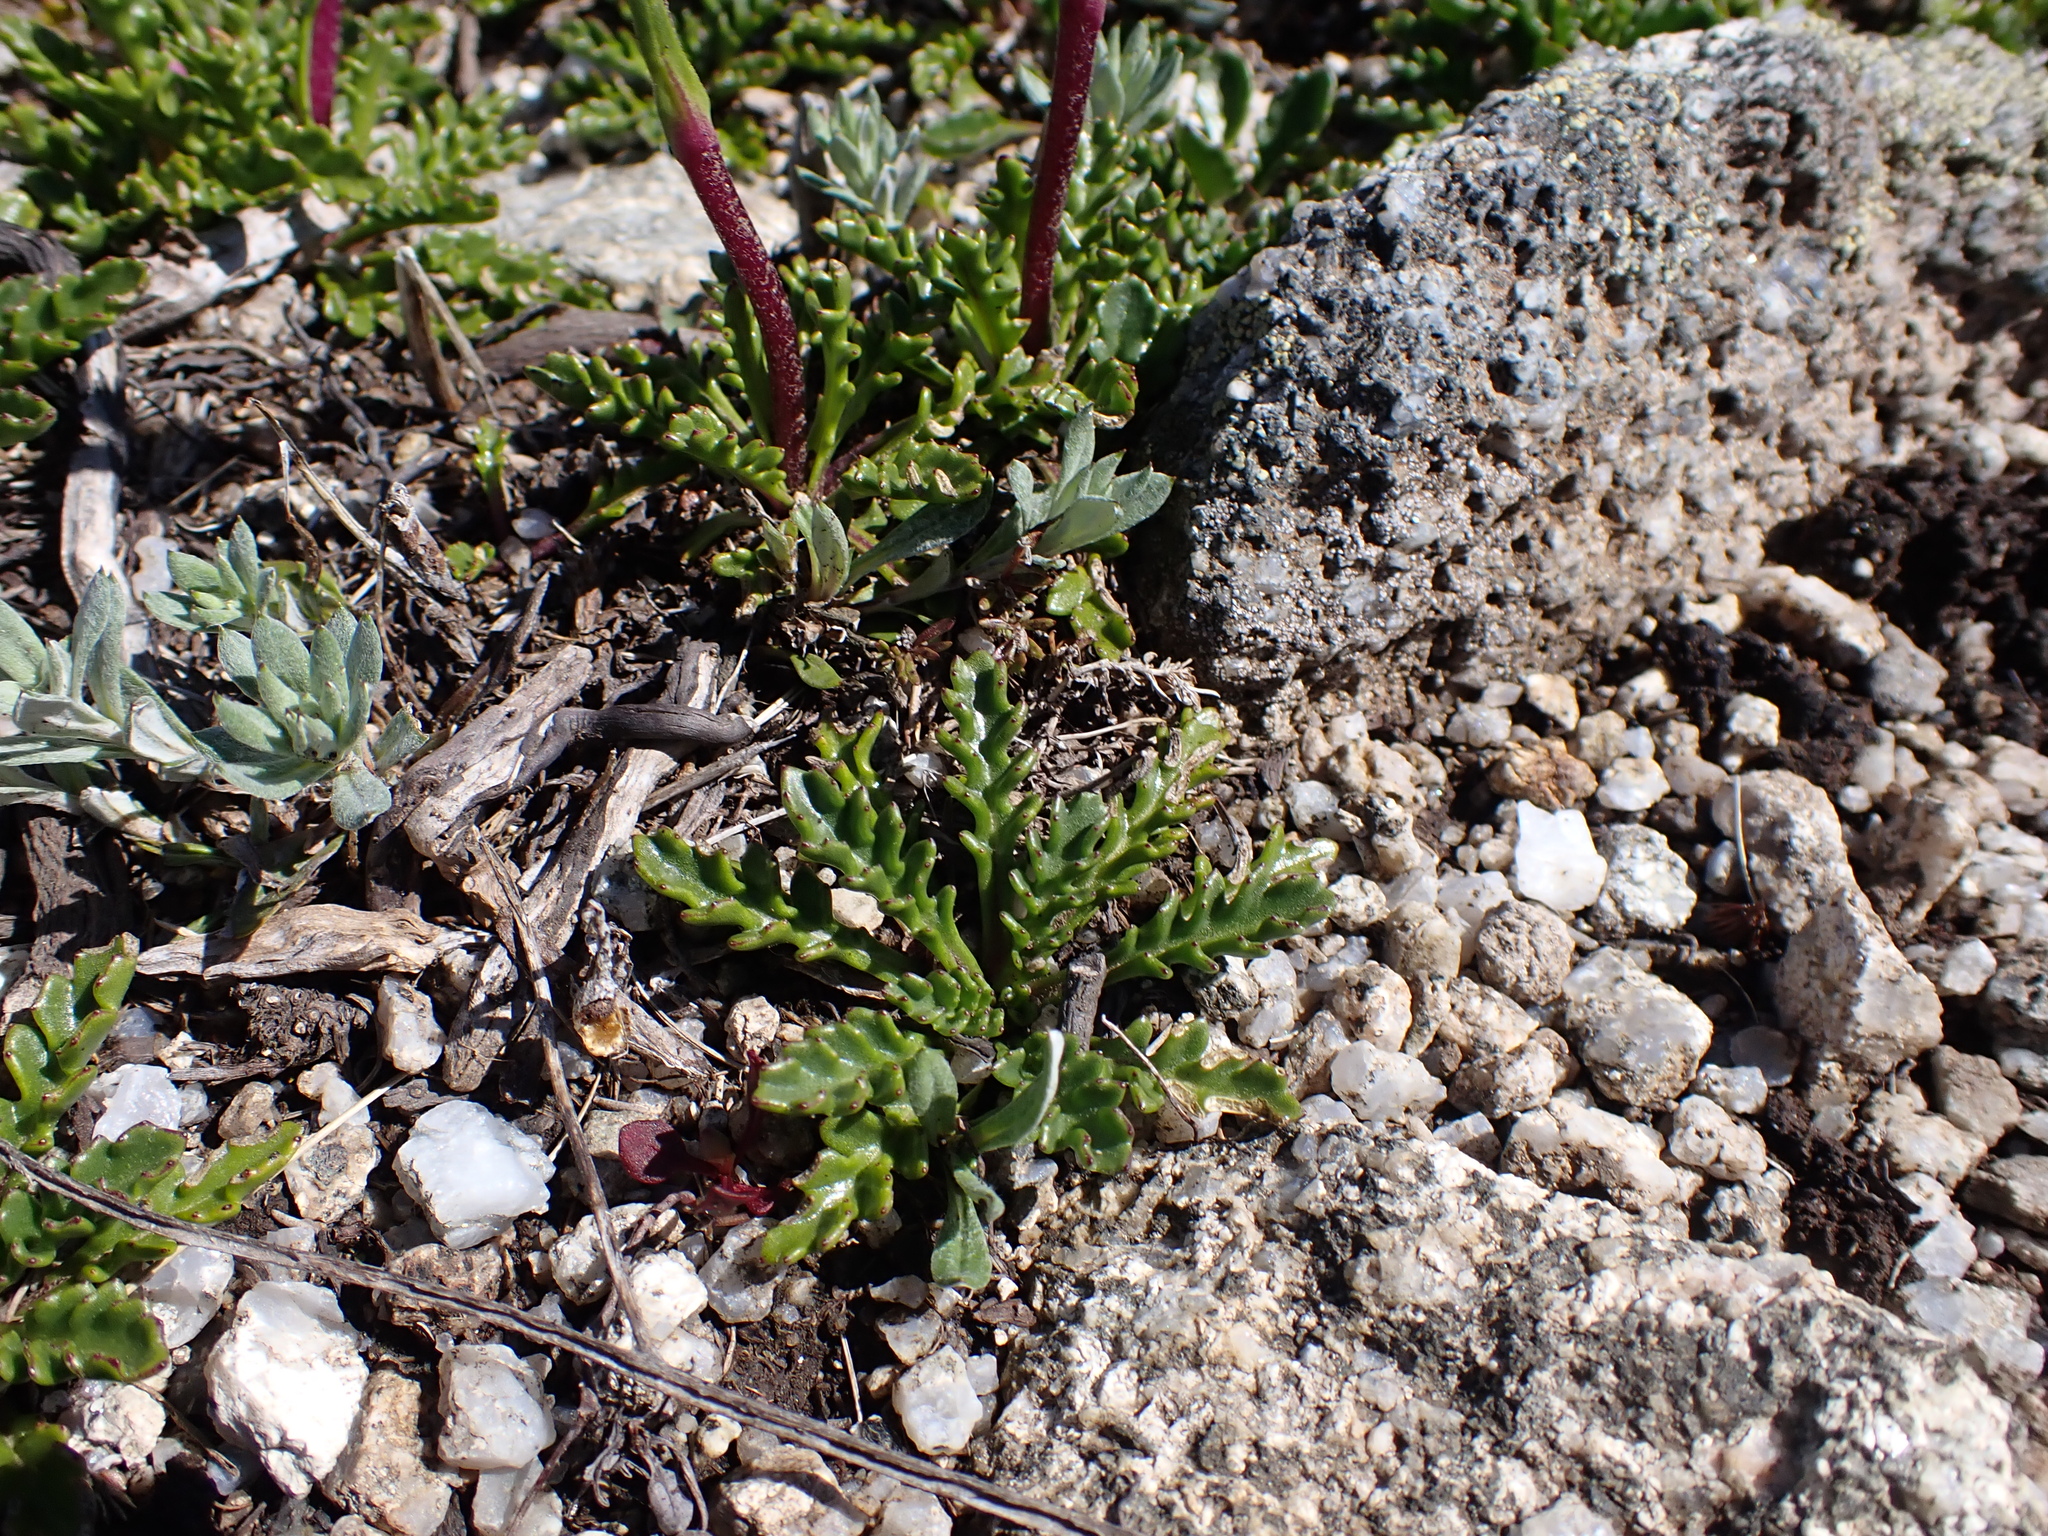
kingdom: Plantae
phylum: Tracheophyta
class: Magnoliopsida
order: Asterales
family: Asteraceae
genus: Scapisenecio
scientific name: Scapisenecio pectinatus
